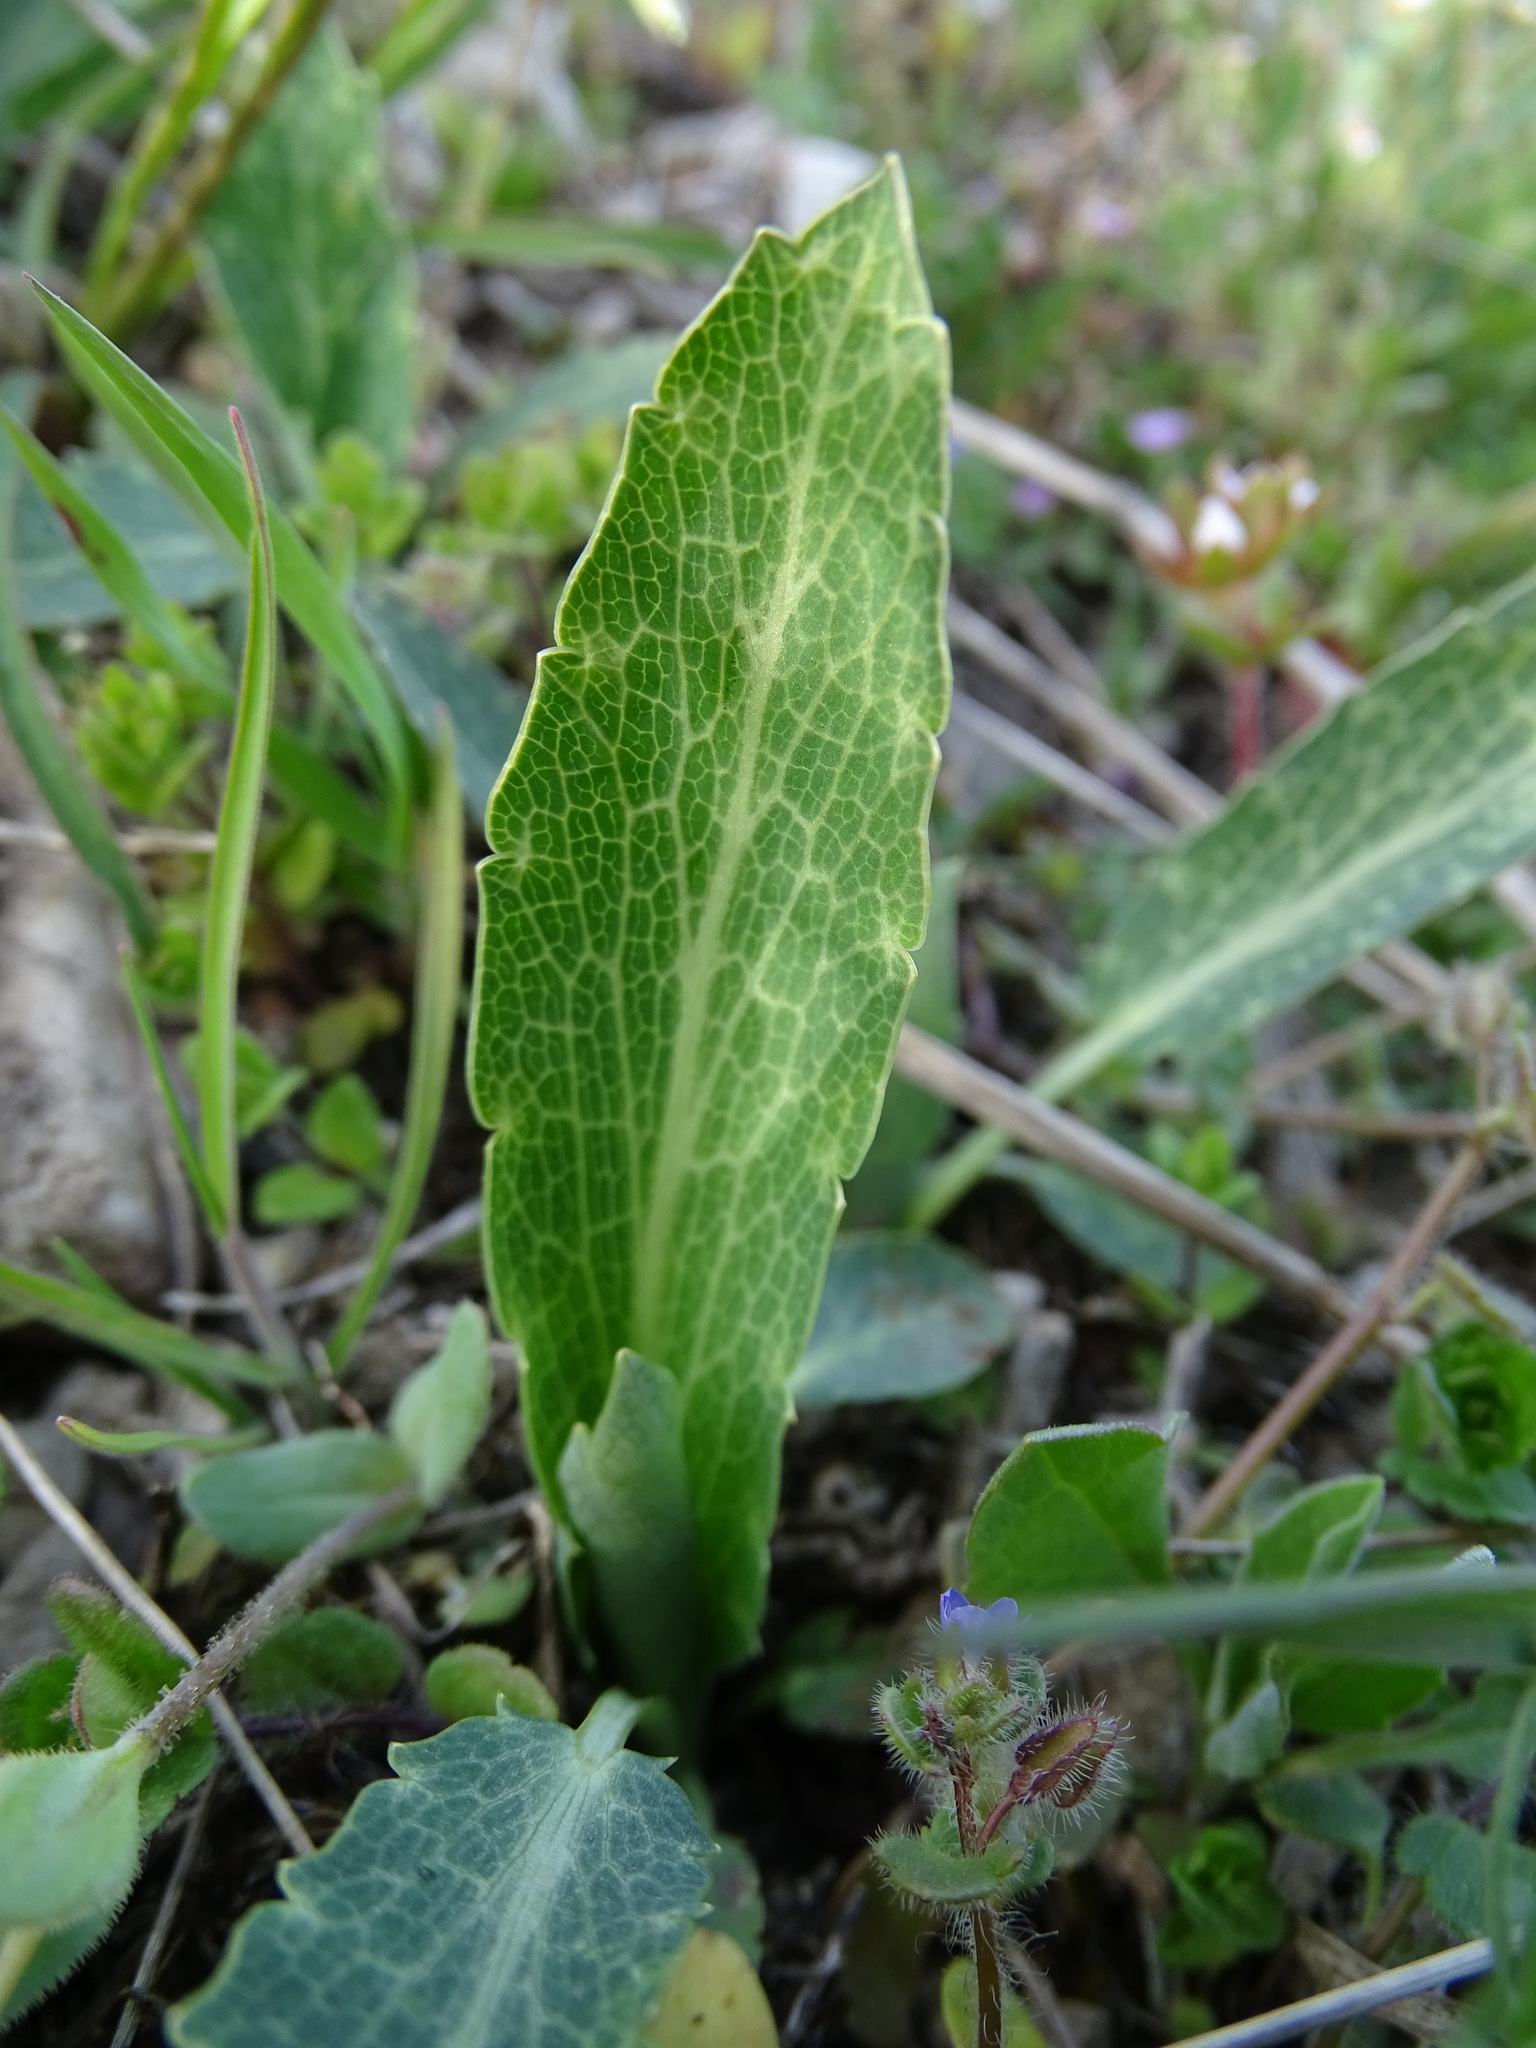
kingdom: Plantae
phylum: Tracheophyta
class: Magnoliopsida
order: Apiales
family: Apiaceae
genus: Eryngium
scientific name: Eryngium campestre
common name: Field eryngo
